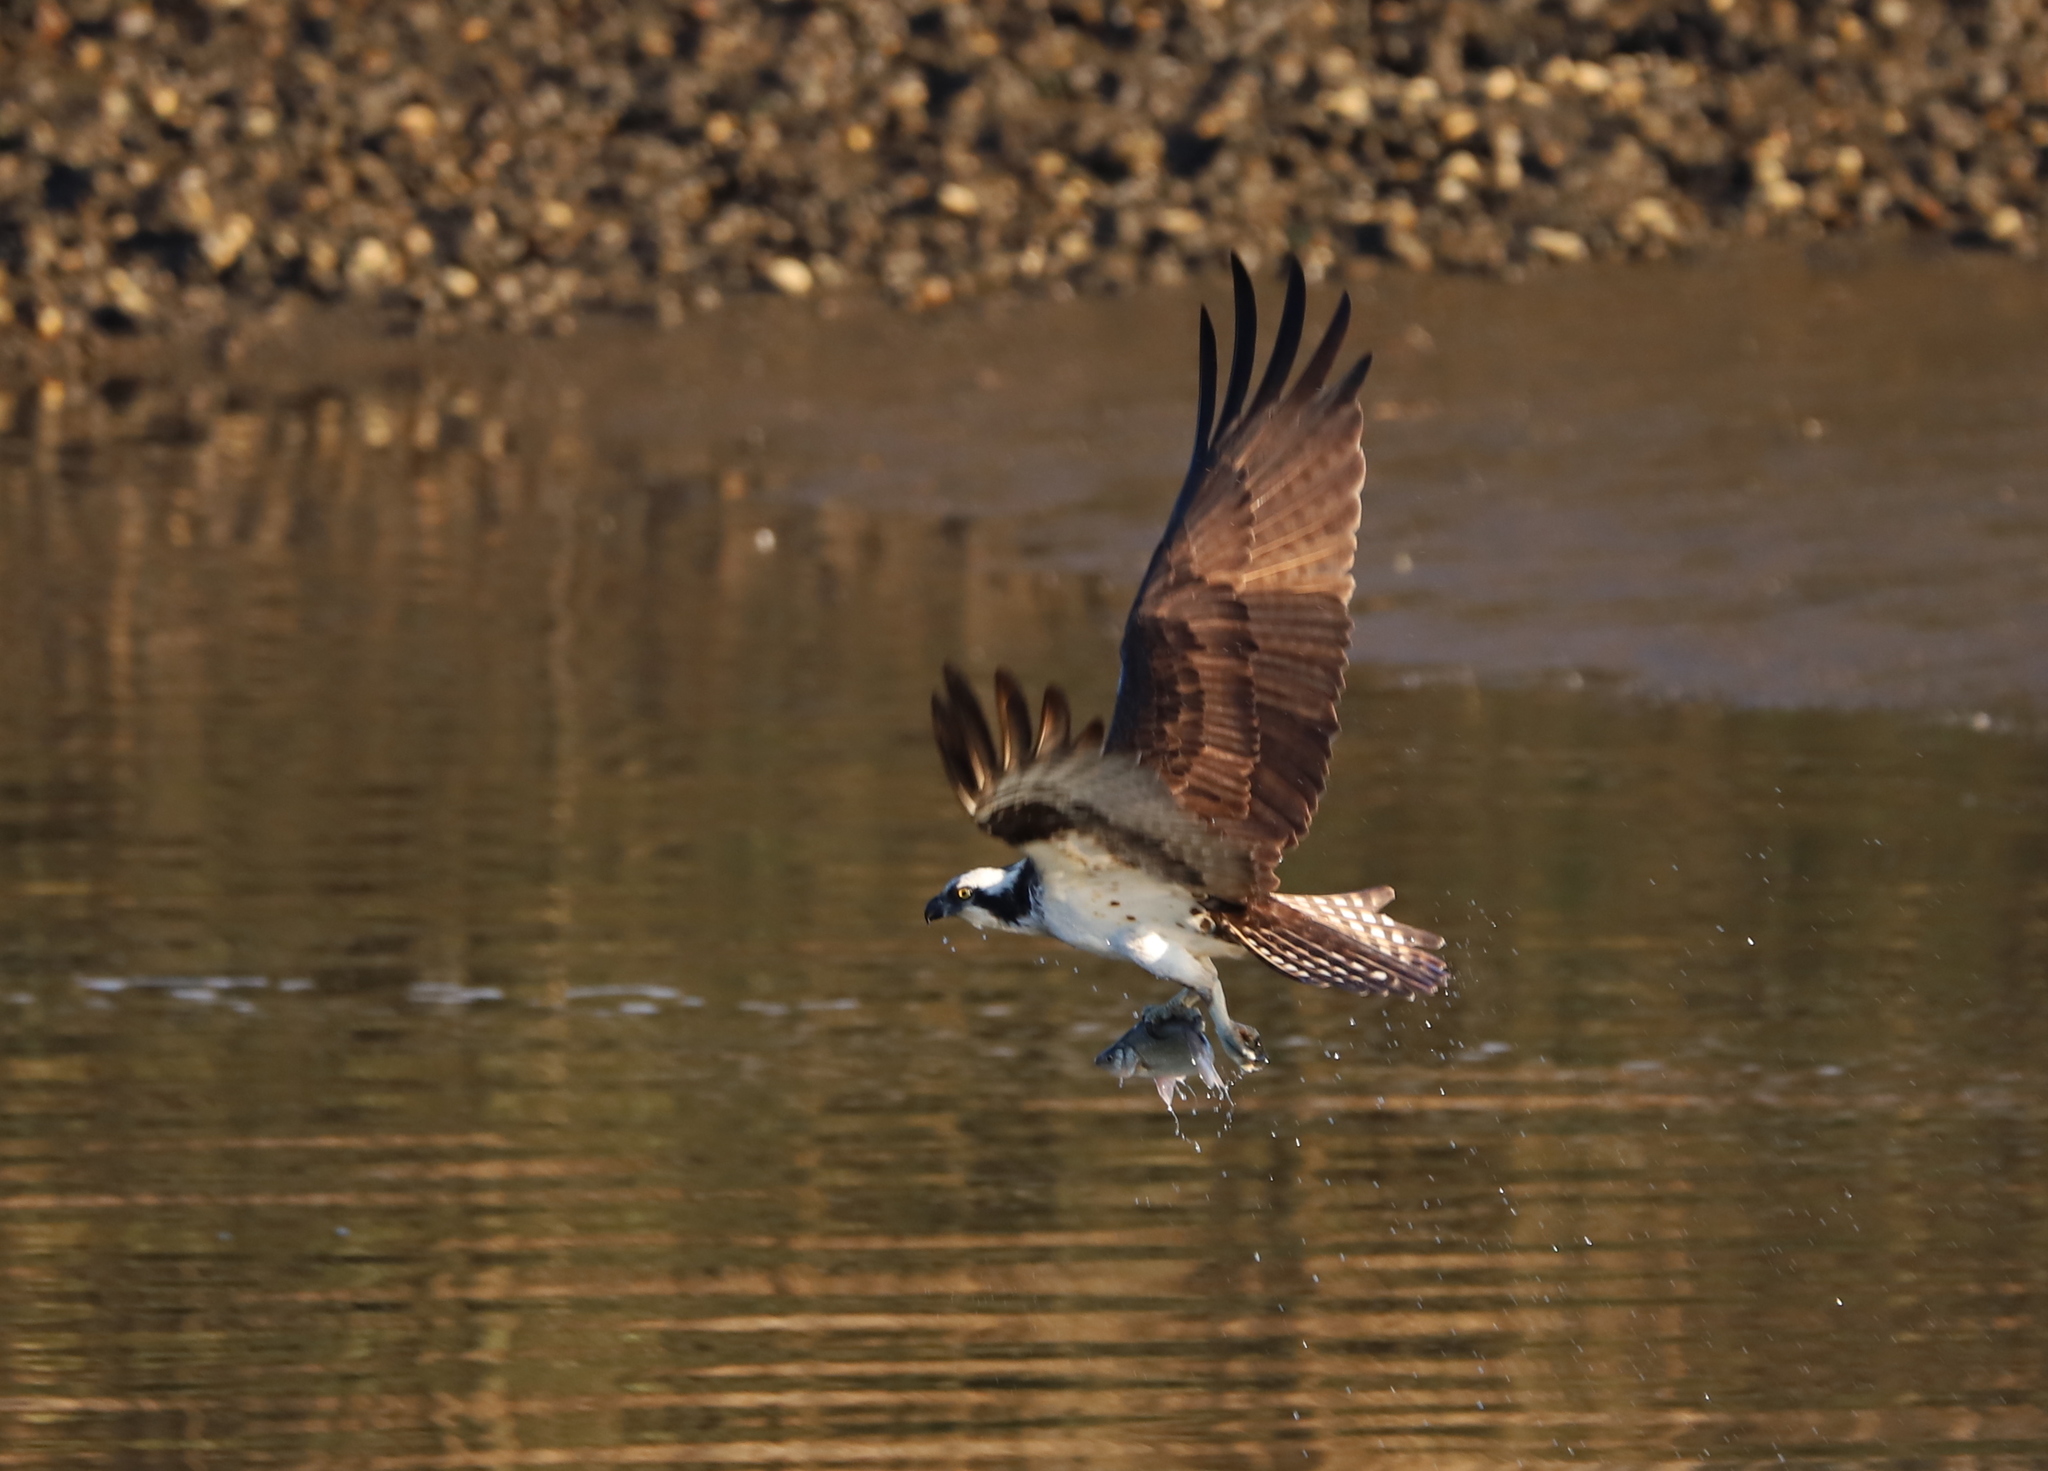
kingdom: Animalia
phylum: Chordata
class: Aves
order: Accipitriformes
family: Pandionidae
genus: Pandion
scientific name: Pandion haliaetus
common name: Osprey
